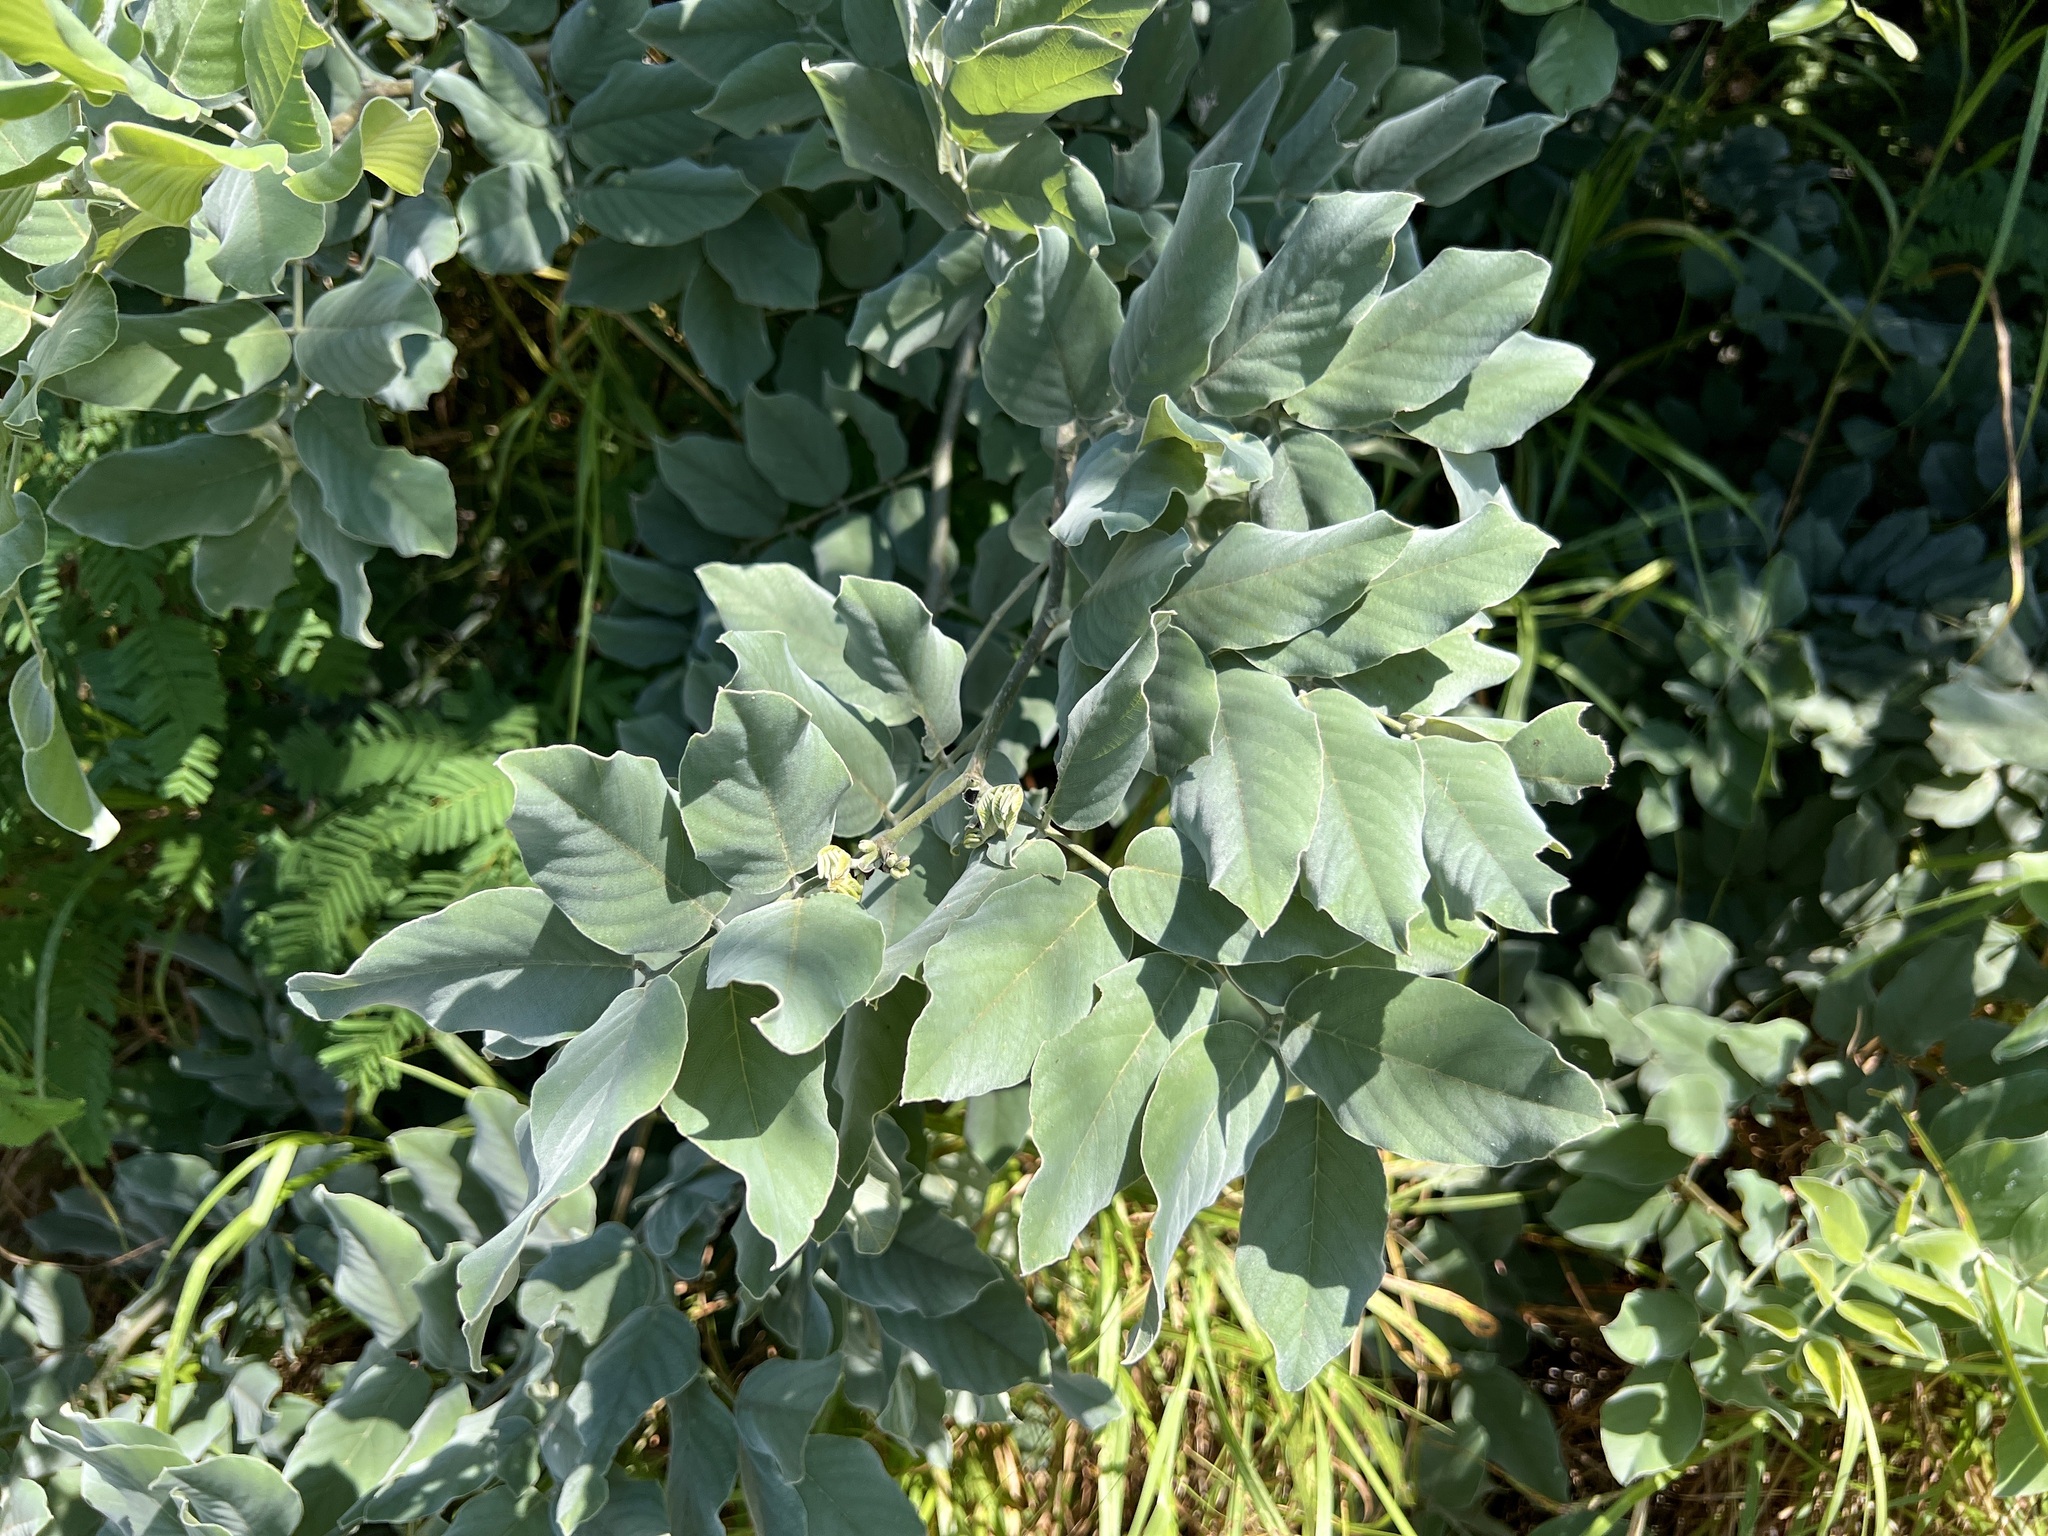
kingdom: Plantae
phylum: Tracheophyta
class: Magnoliopsida
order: Fabales
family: Fabaceae
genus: Piscidia
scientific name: Piscidia mollis
